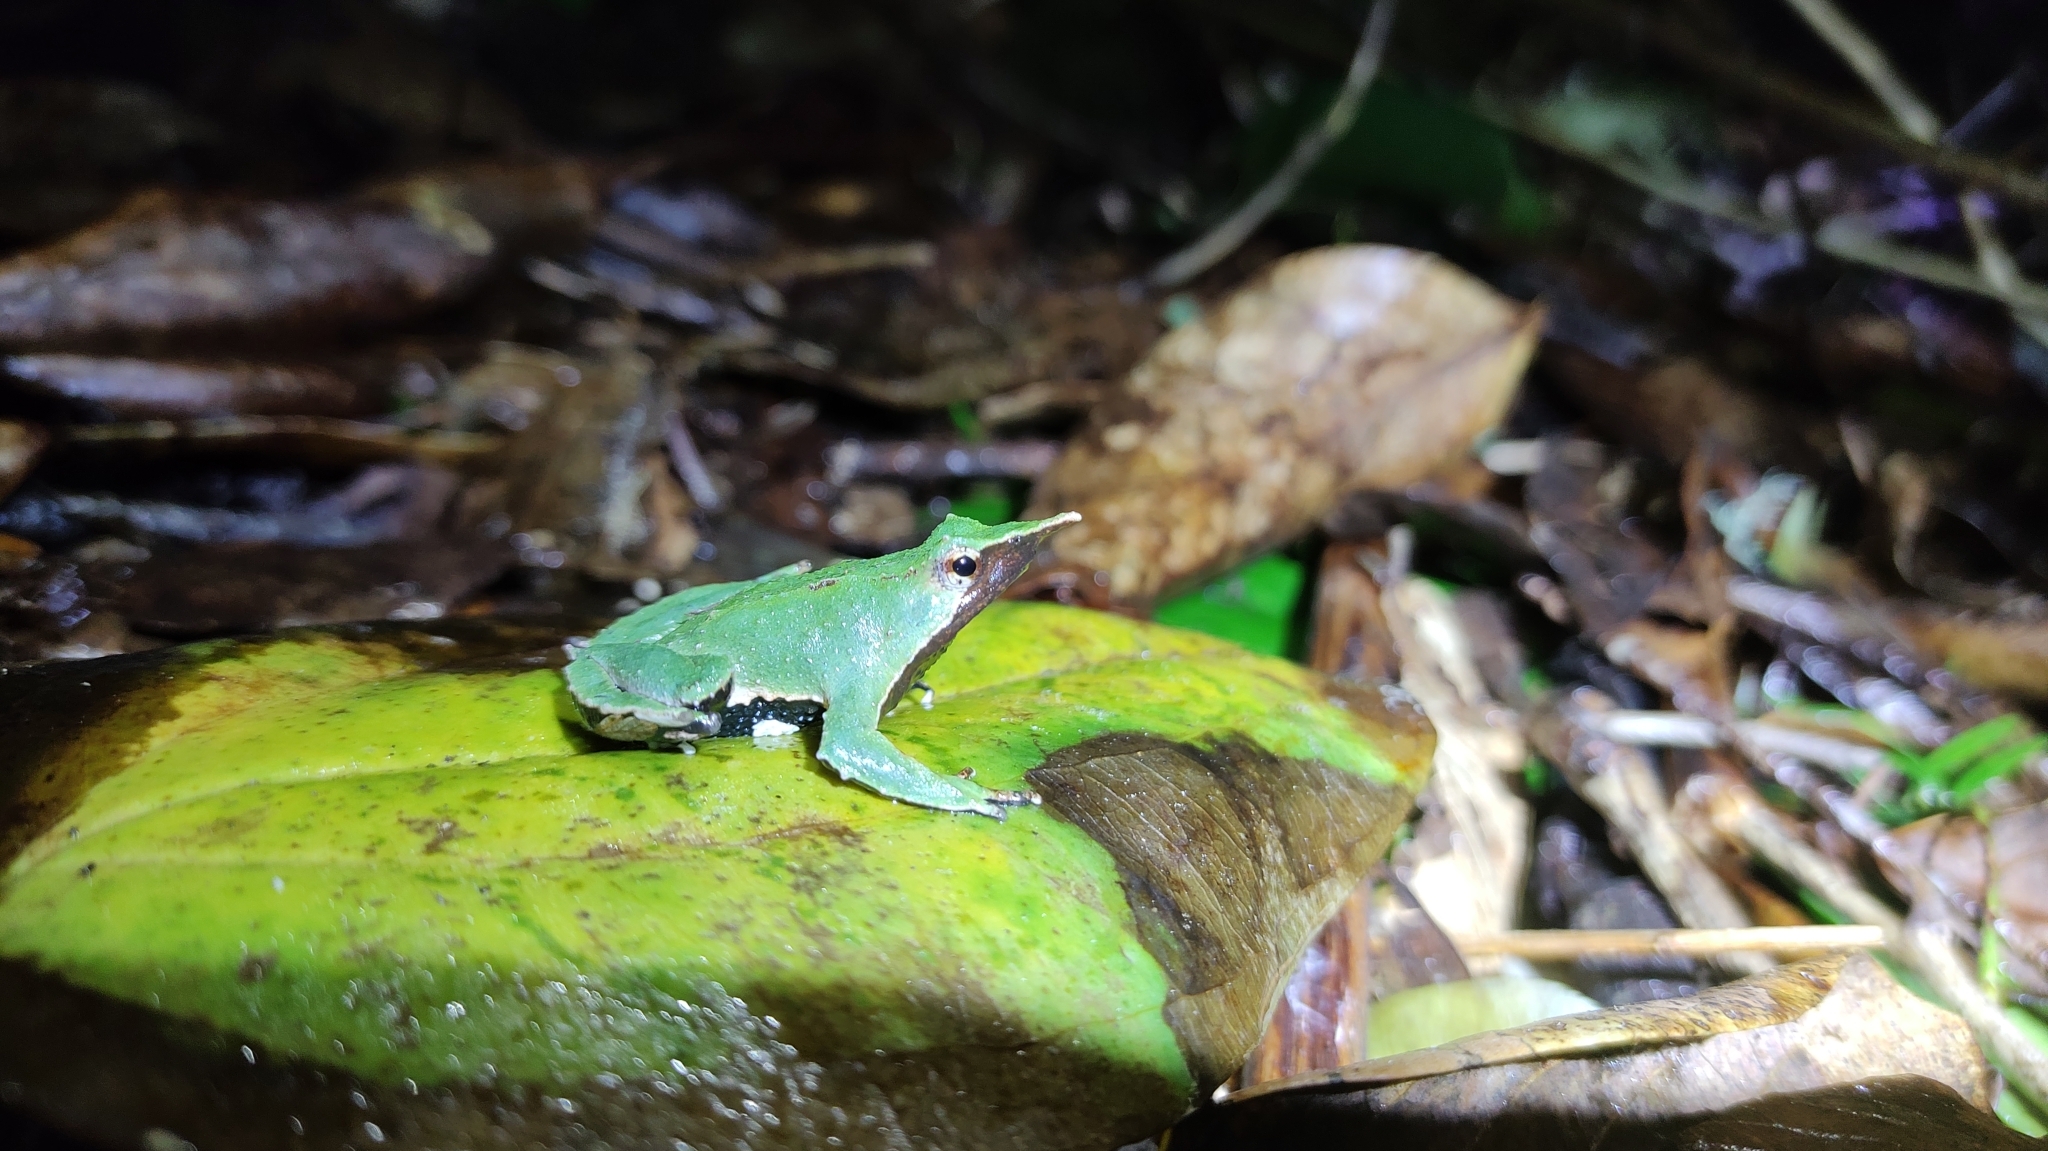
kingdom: Animalia
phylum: Chordata
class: Amphibia
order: Anura
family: Rhinodermatidae
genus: Rhinoderma
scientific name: Rhinoderma darwinii
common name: Darwin's frog
